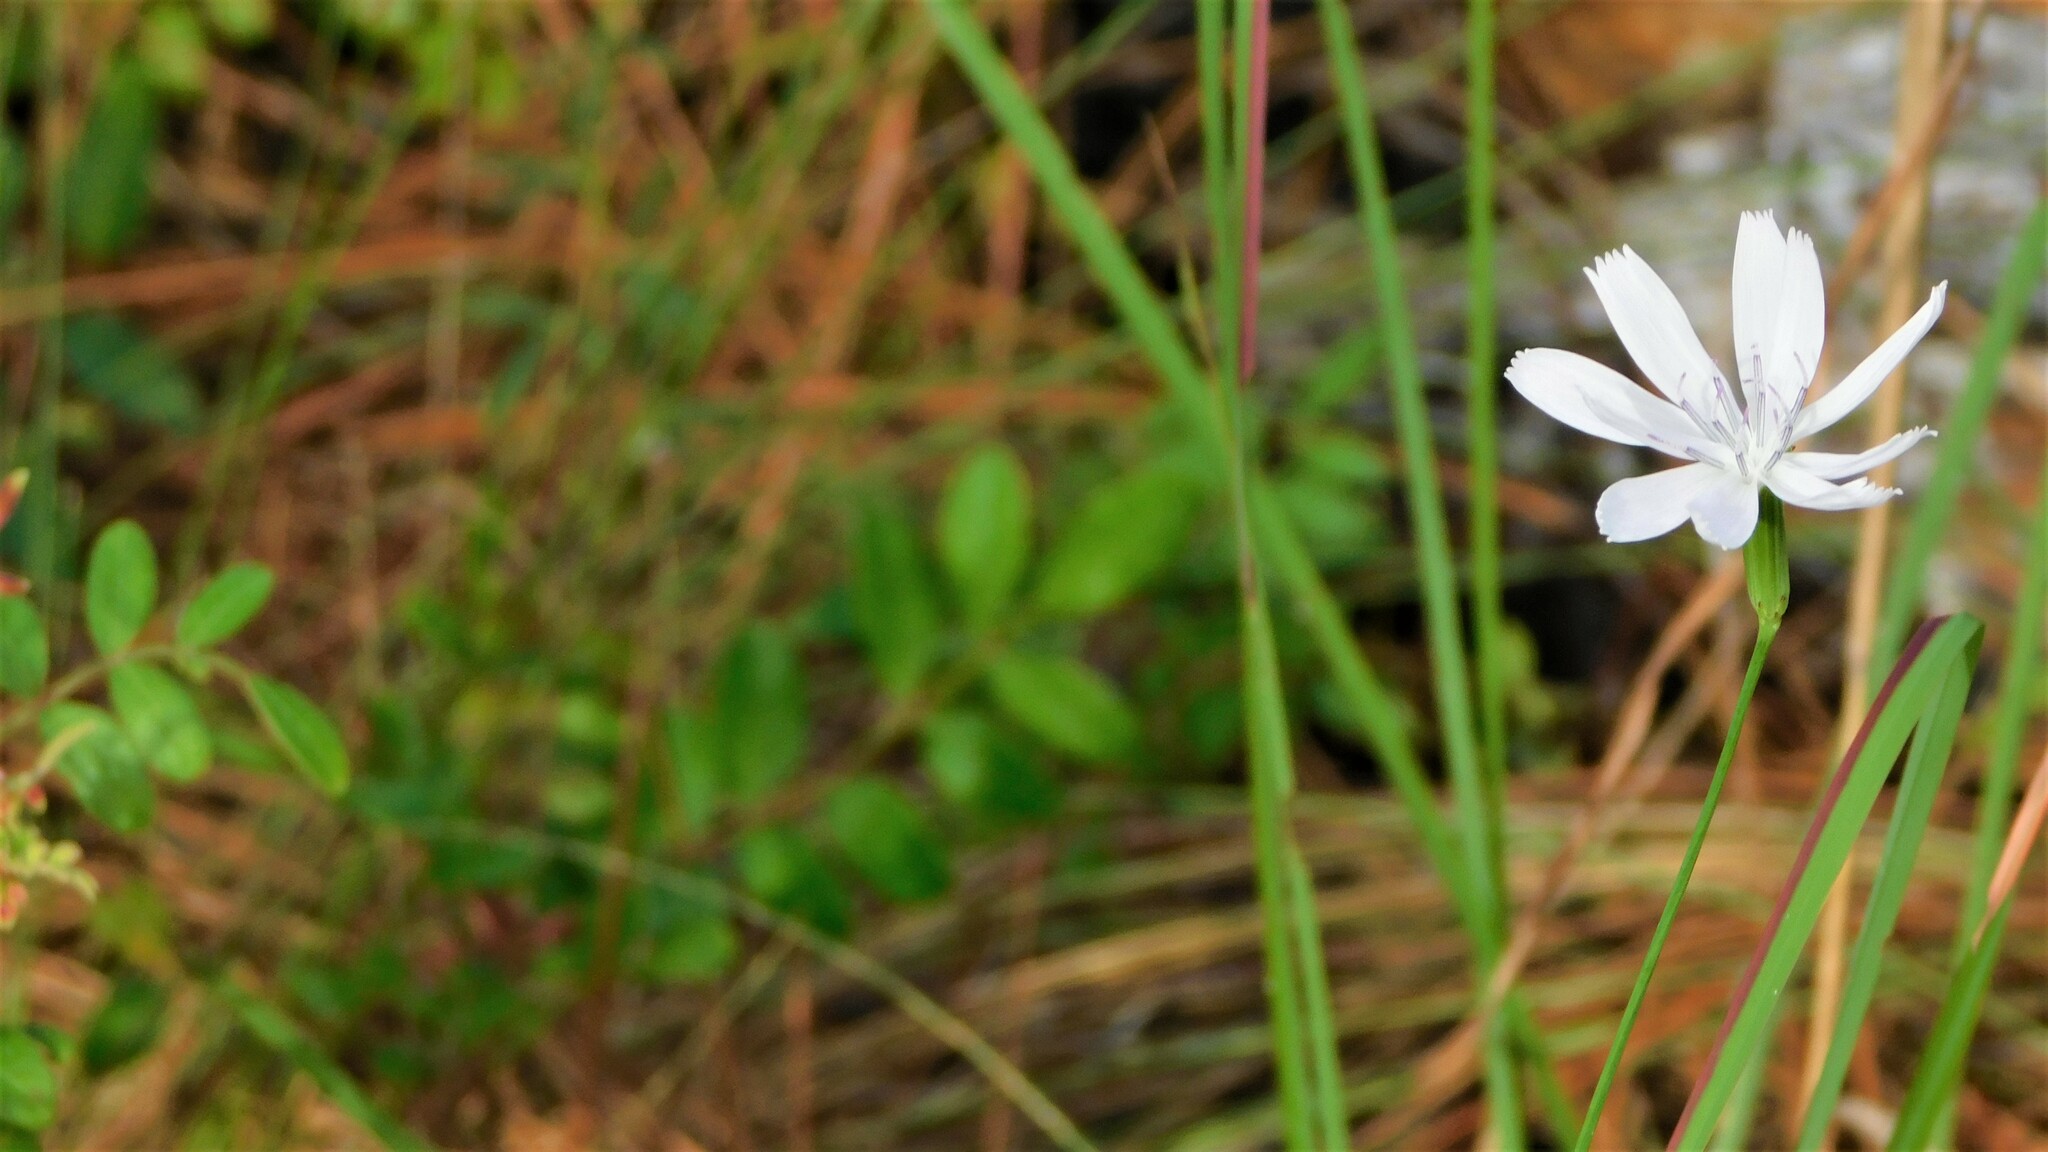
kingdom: Plantae
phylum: Tracheophyta
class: Magnoliopsida
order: Asterales
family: Asteraceae
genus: Lygodesmia
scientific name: Lygodesmia aphylla
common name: Rose-rush
